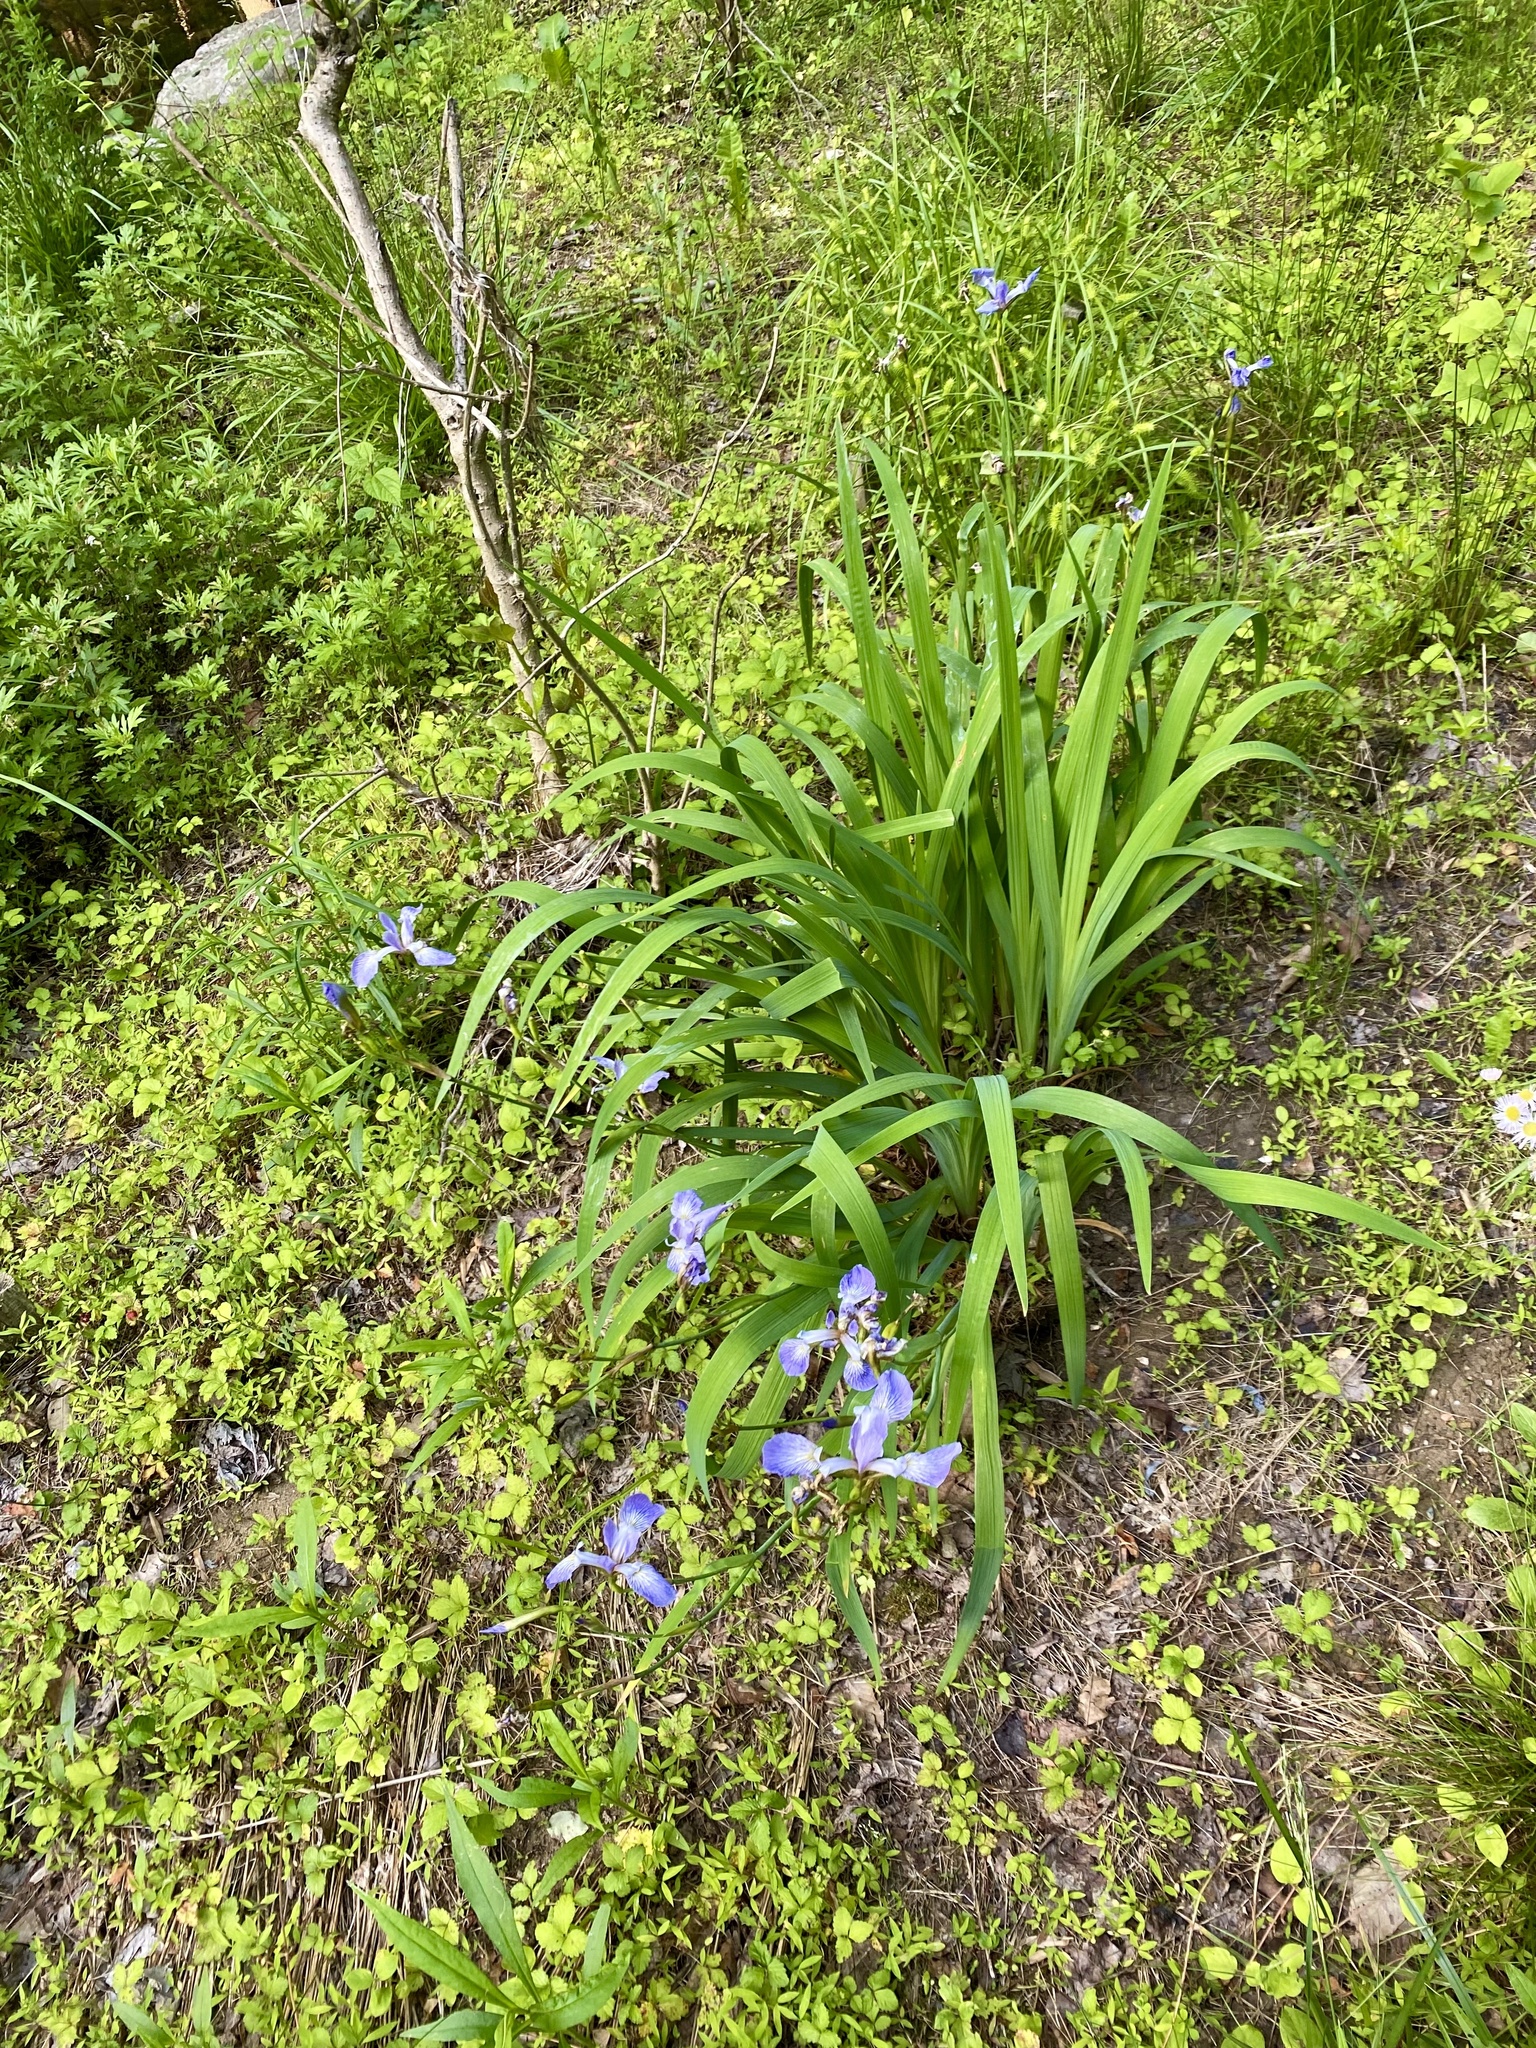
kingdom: Plantae
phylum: Tracheophyta
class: Liliopsida
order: Asparagales
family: Iridaceae
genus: Iris
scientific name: Iris versicolor
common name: Purple iris
